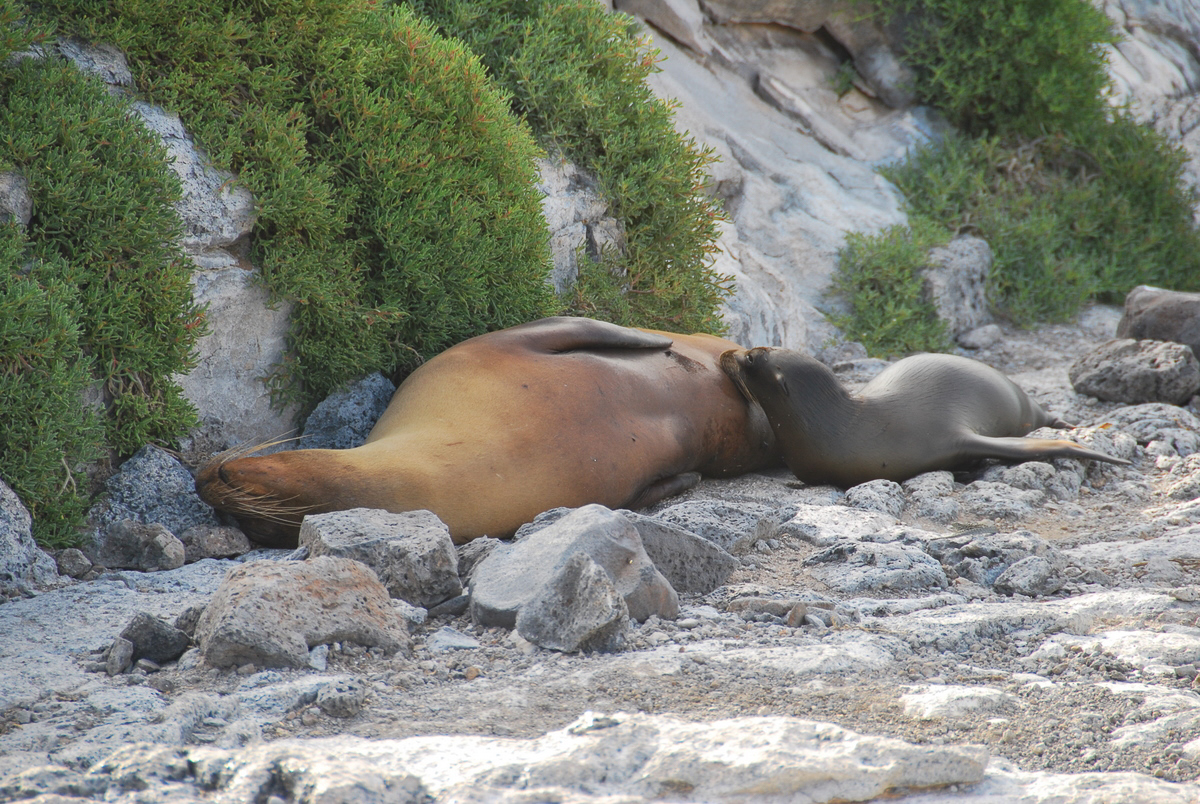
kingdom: Animalia
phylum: Chordata
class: Mammalia
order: Carnivora
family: Otariidae
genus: Zalophus
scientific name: Zalophus wollebaeki
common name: Galapagos sea lion
